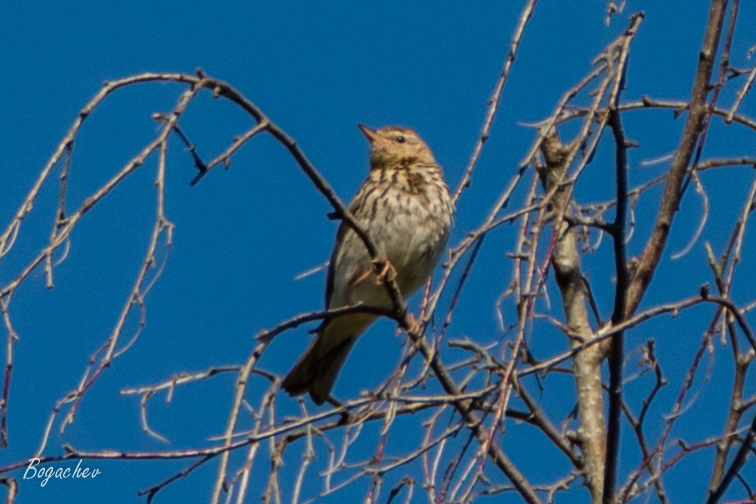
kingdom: Animalia
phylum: Chordata
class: Aves
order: Passeriformes
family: Motacillidae
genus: Anthus
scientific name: Anthus trivialis
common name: Tree pipit
